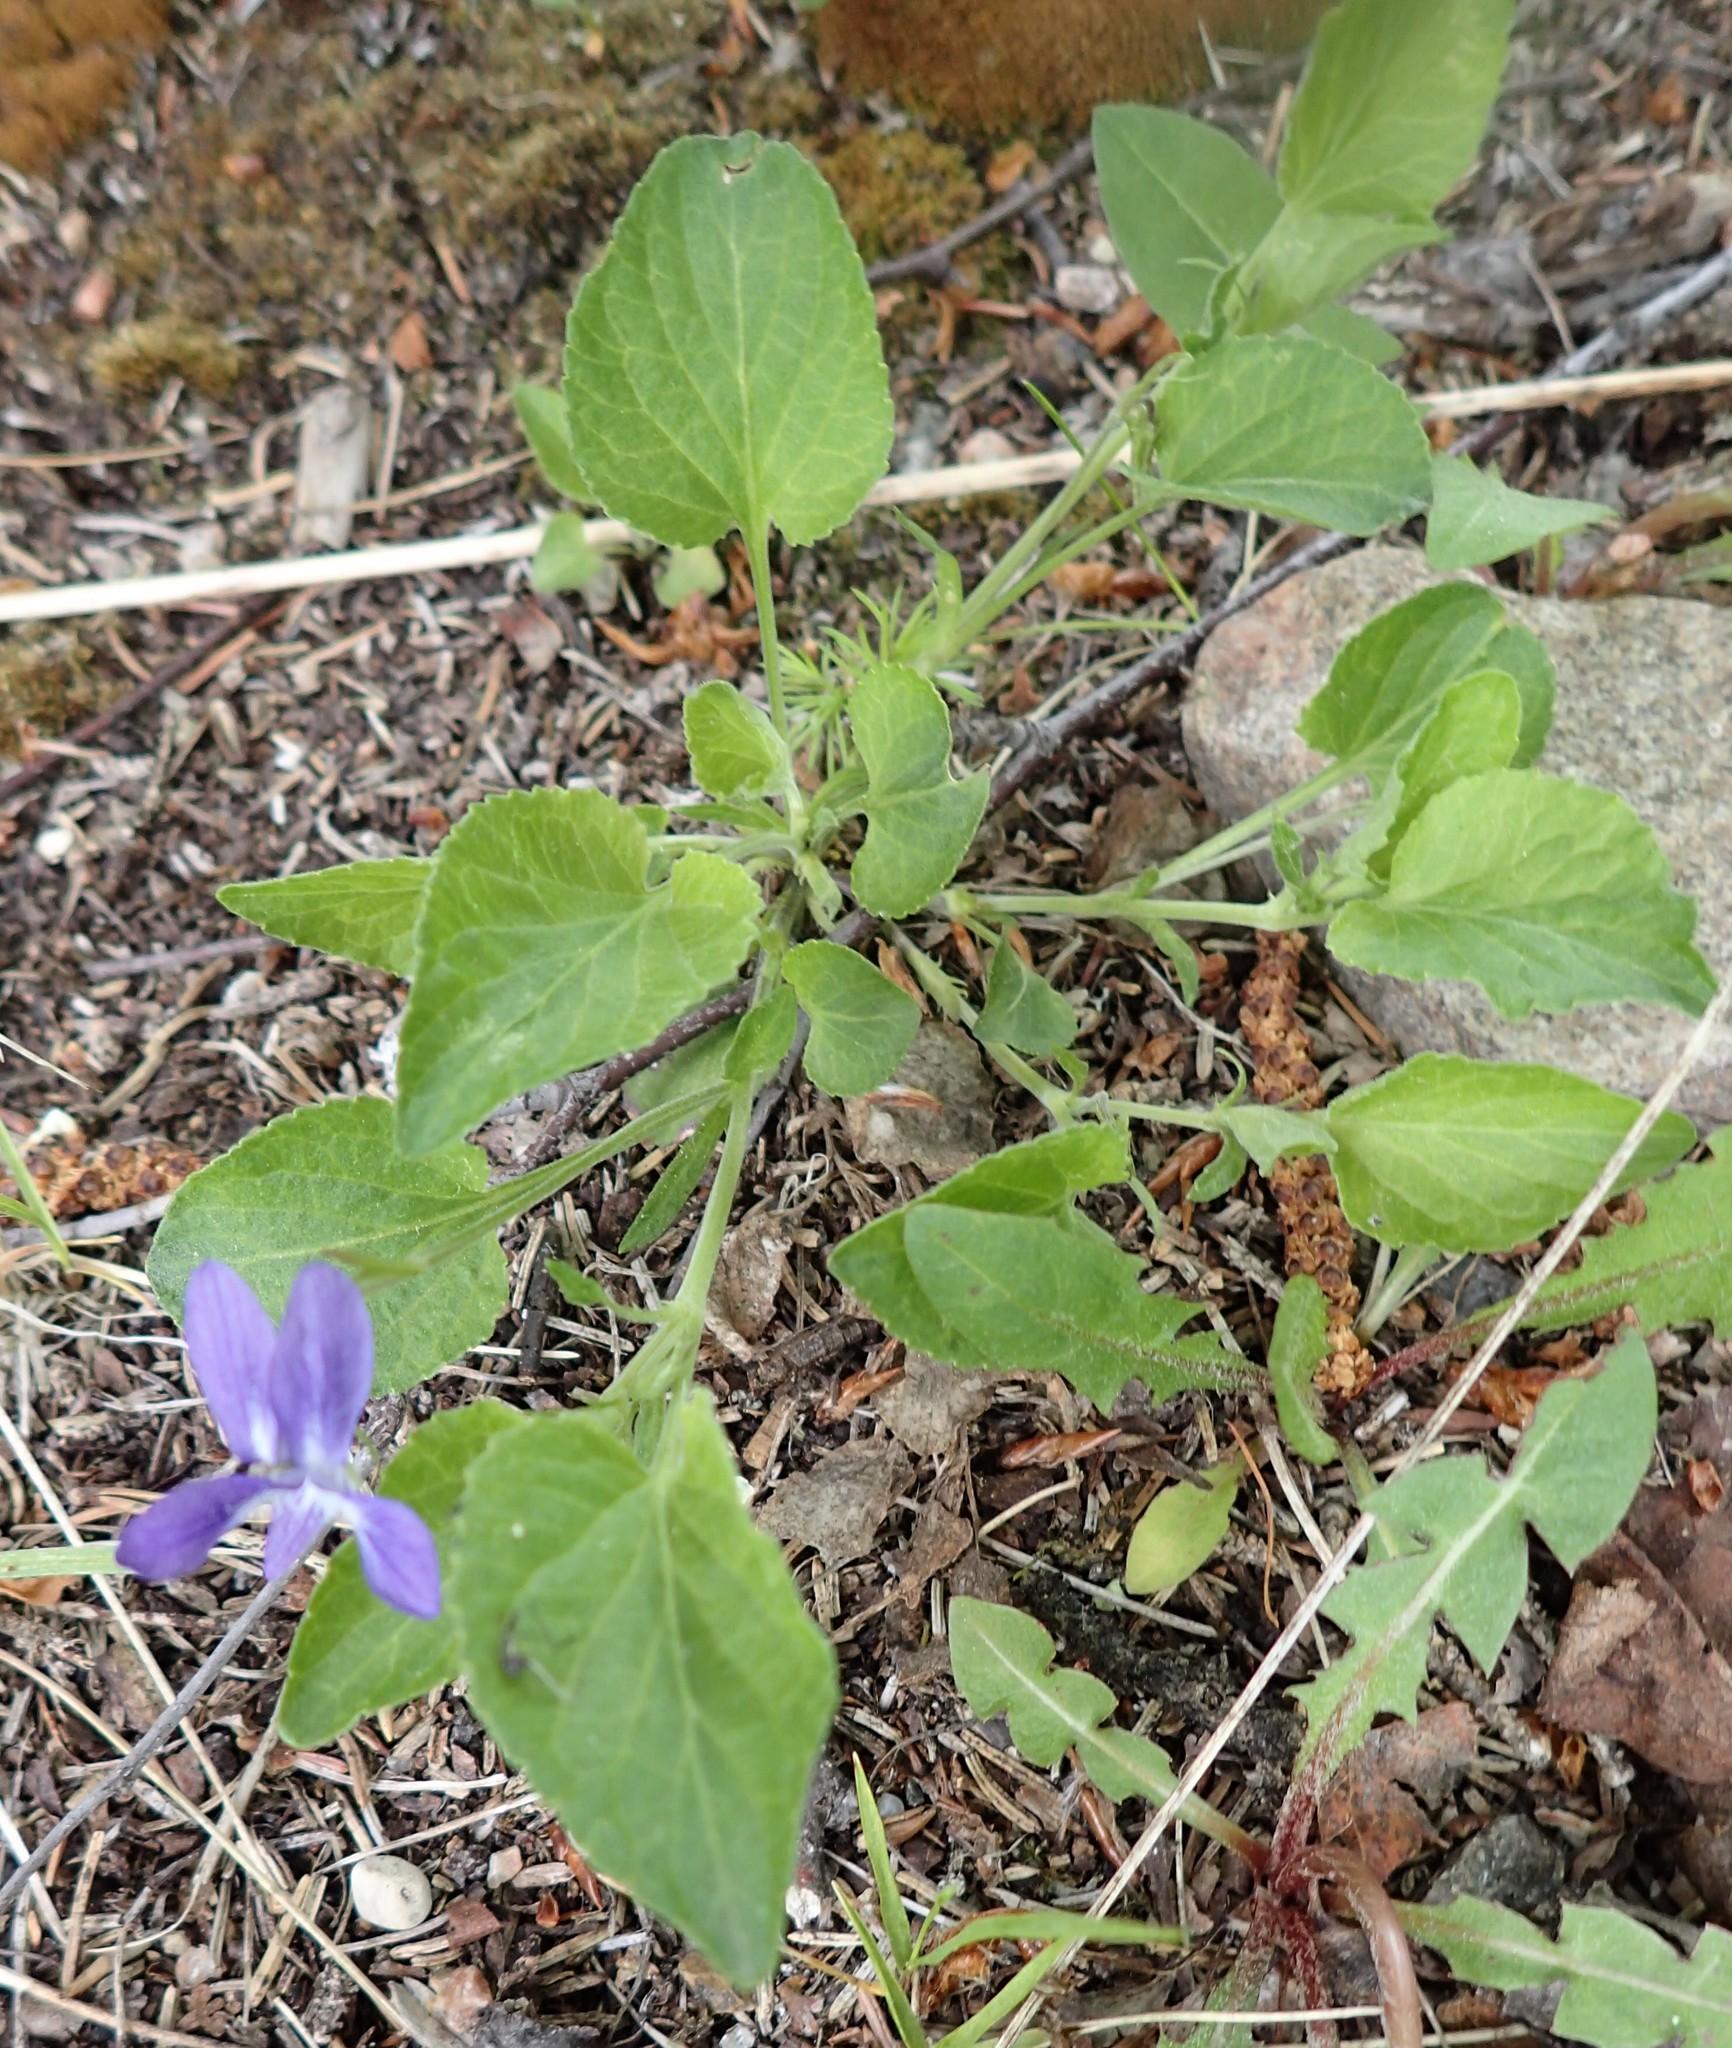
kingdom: Plantae
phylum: Tracheophyta
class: Magnoliopsida
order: Malpighiales
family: Violaceae
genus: Viola
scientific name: Viola adunca
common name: Sand violet
